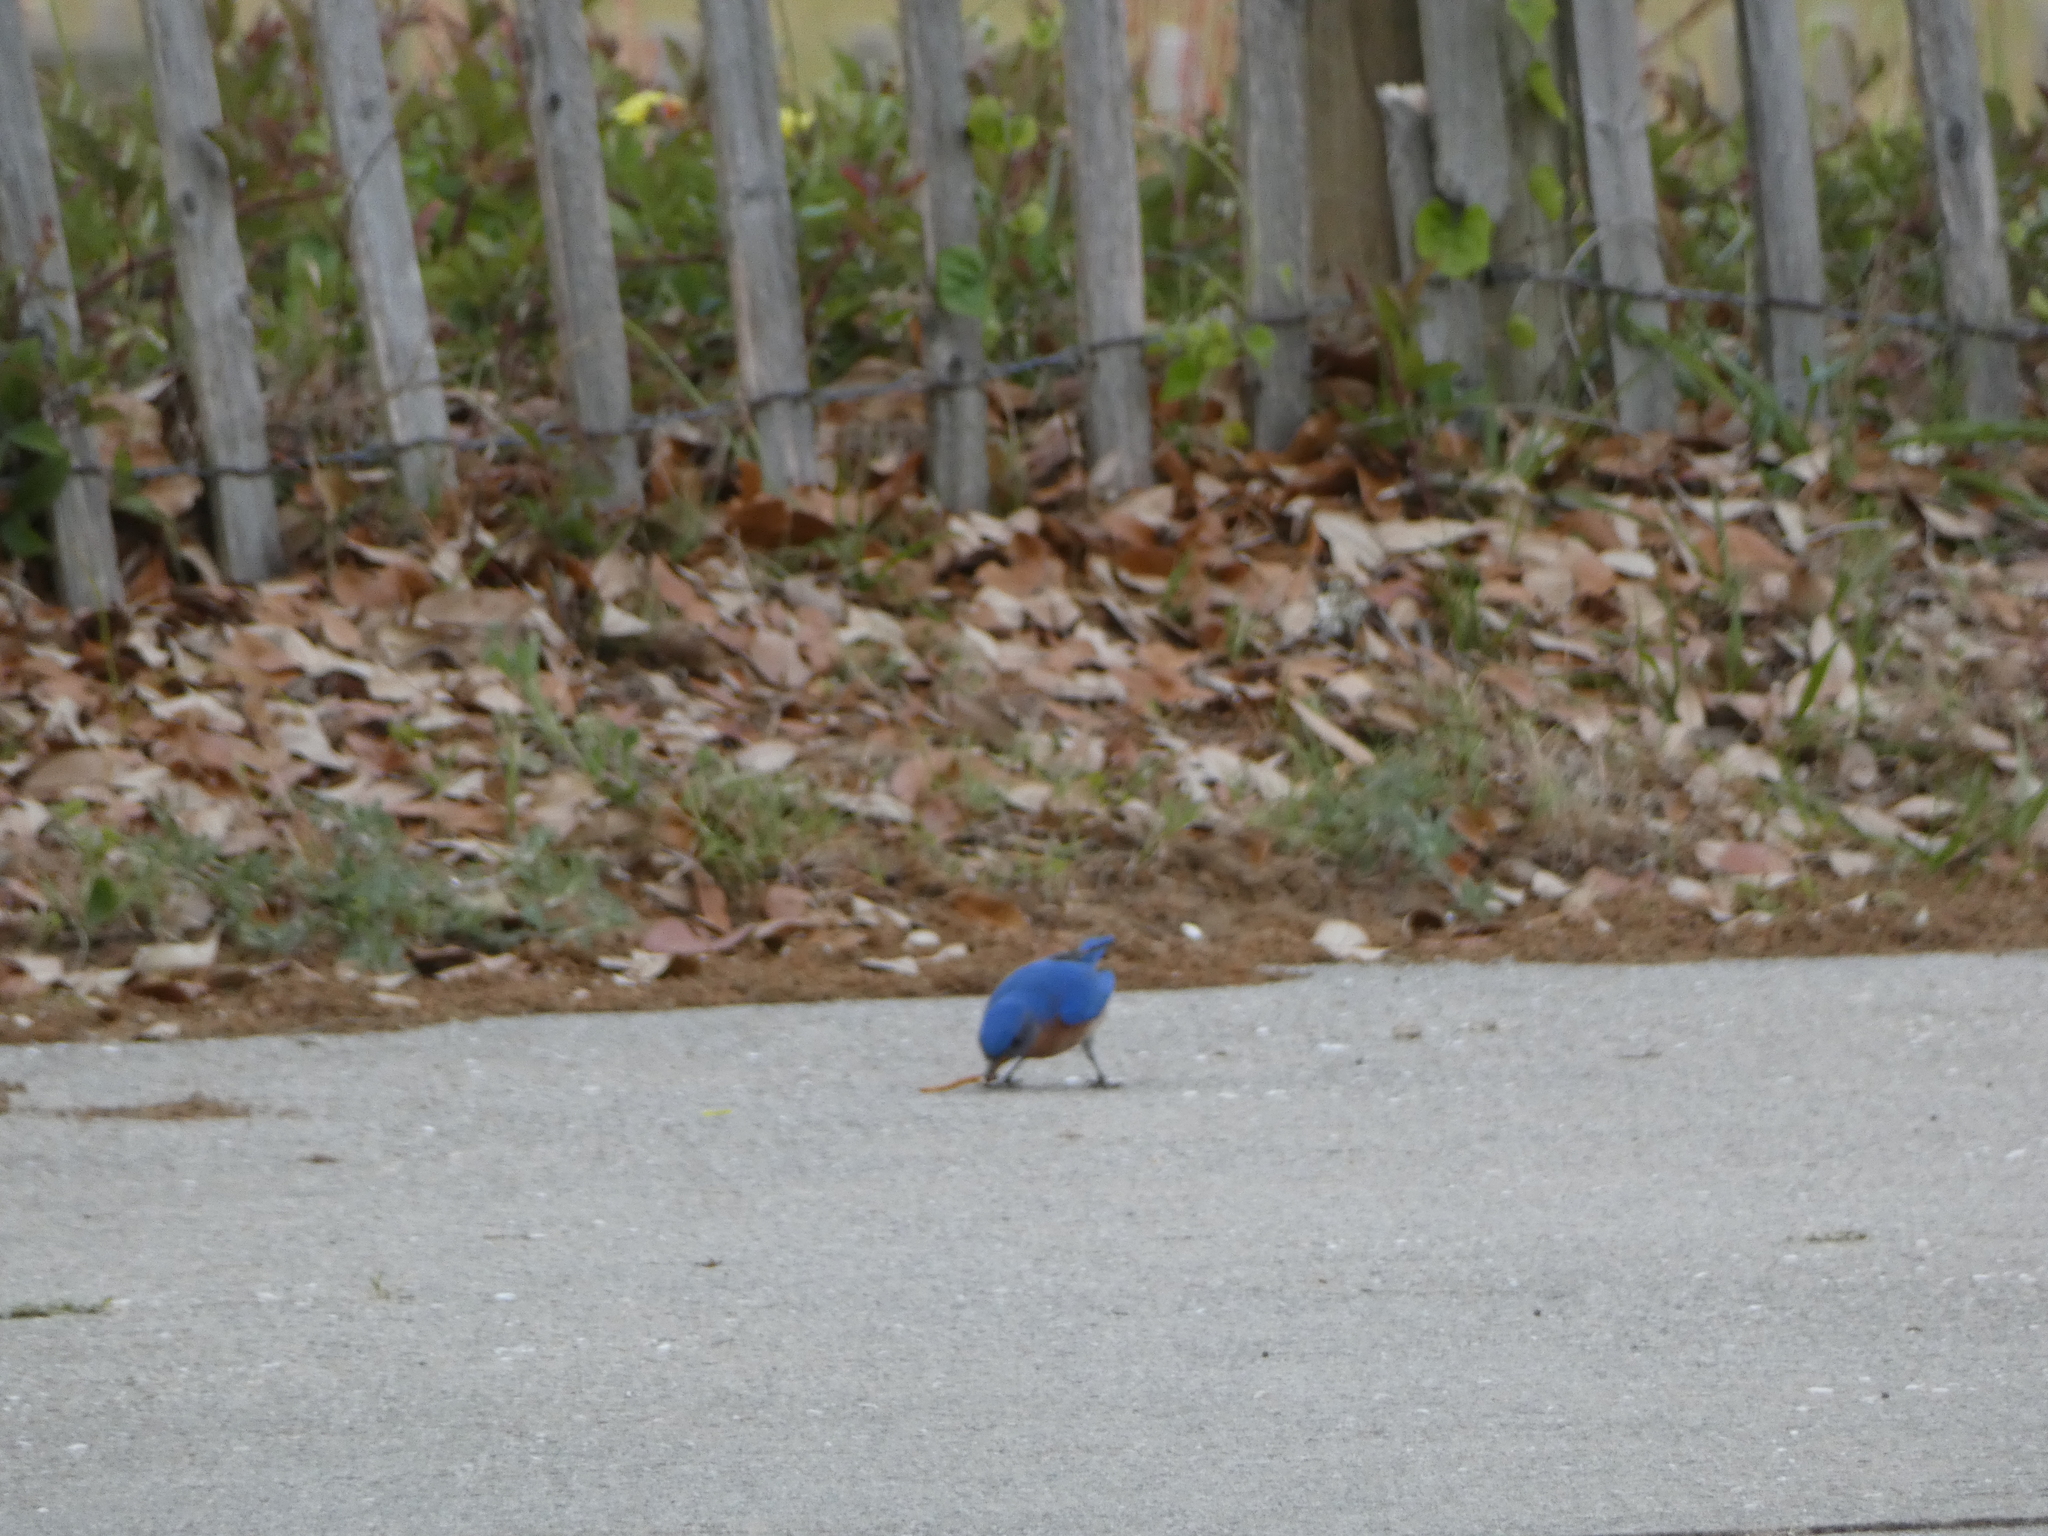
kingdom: Animalia
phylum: Chordata
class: Aves
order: Passeriformes
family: Turdidae
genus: Sialia
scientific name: Sialia sialis
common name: Eastern bluebird
